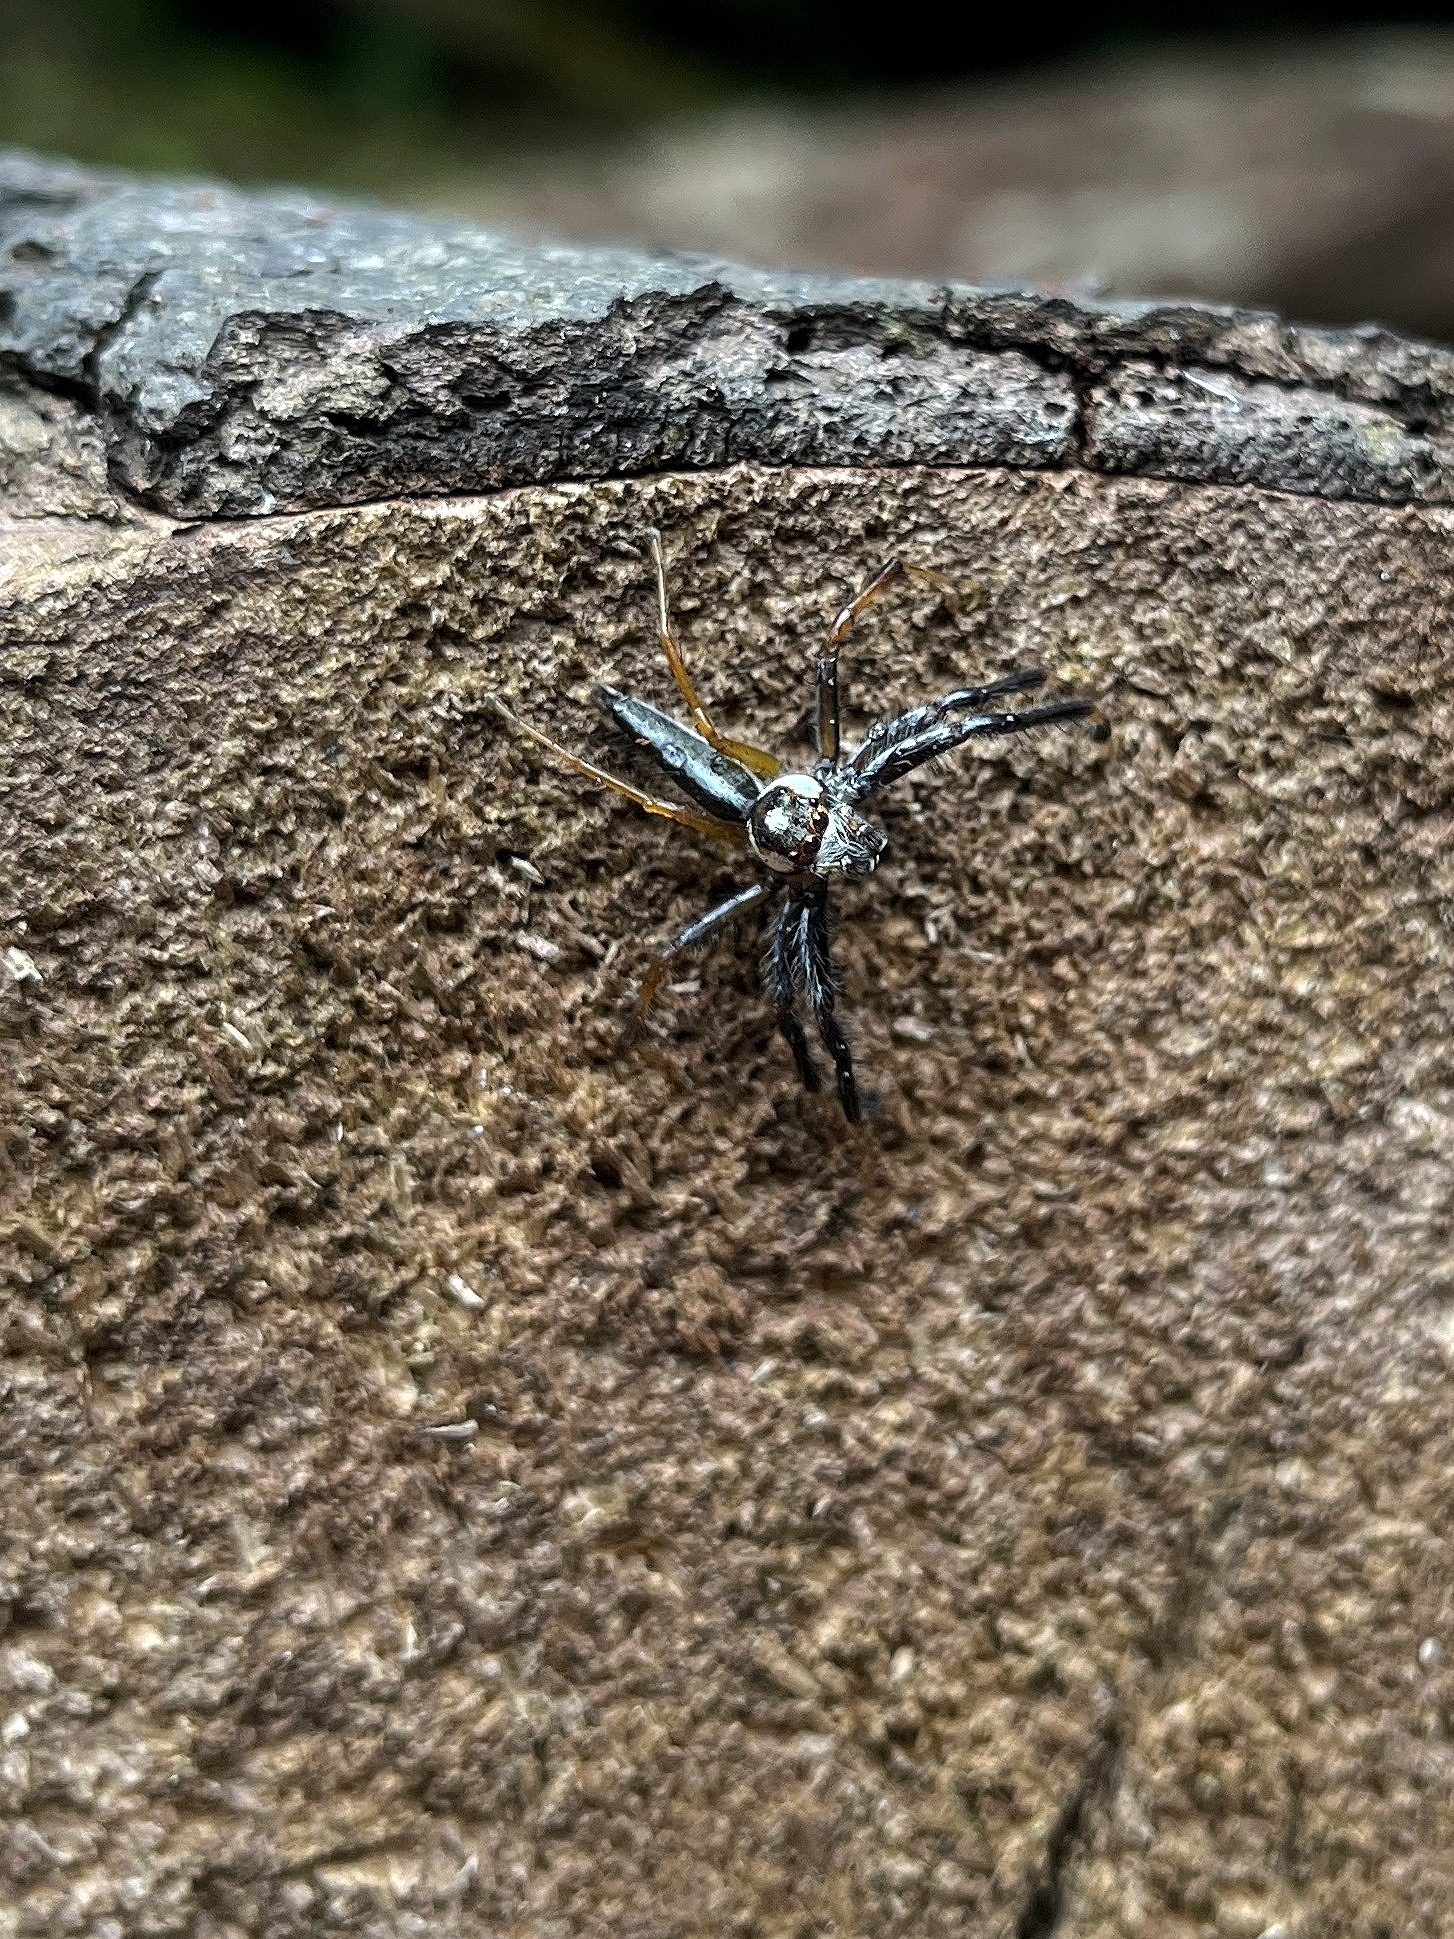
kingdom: Animalia
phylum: Arthropoda
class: Arachnida
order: Araneae
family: Salticidae
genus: Telamonia
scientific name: Telamonia dimidiata
